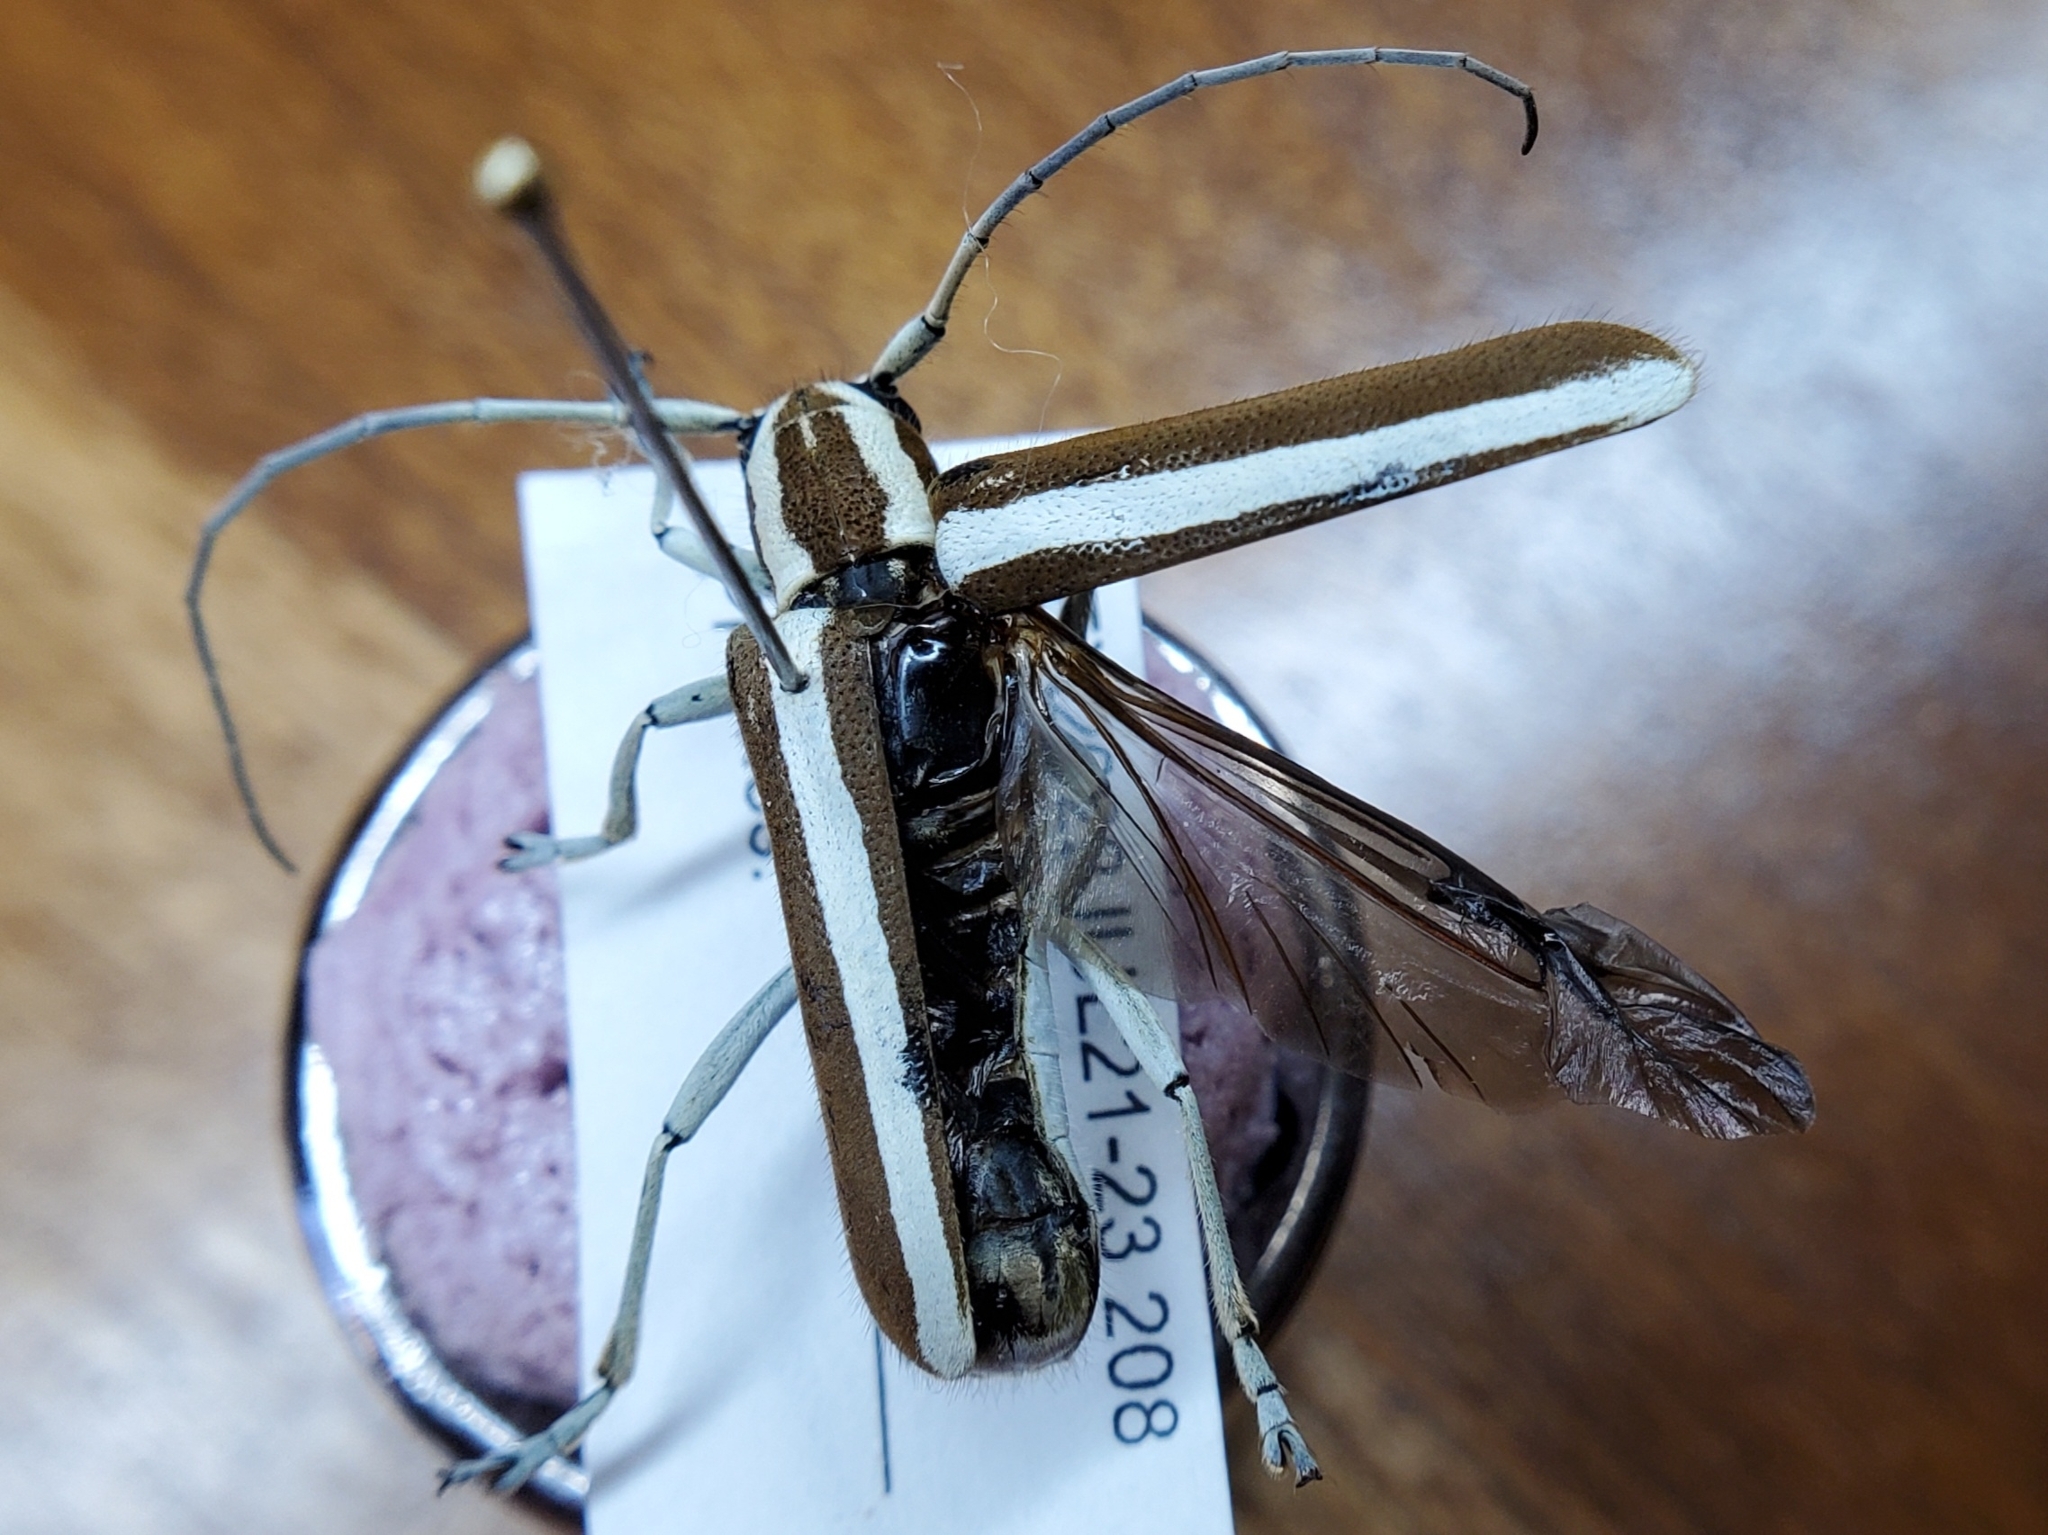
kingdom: Animalia
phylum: Arthropoda
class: Insecta
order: Coleoptera
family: Cerambycidae
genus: Saperda
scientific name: Saperda candida
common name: Round-headed borer
